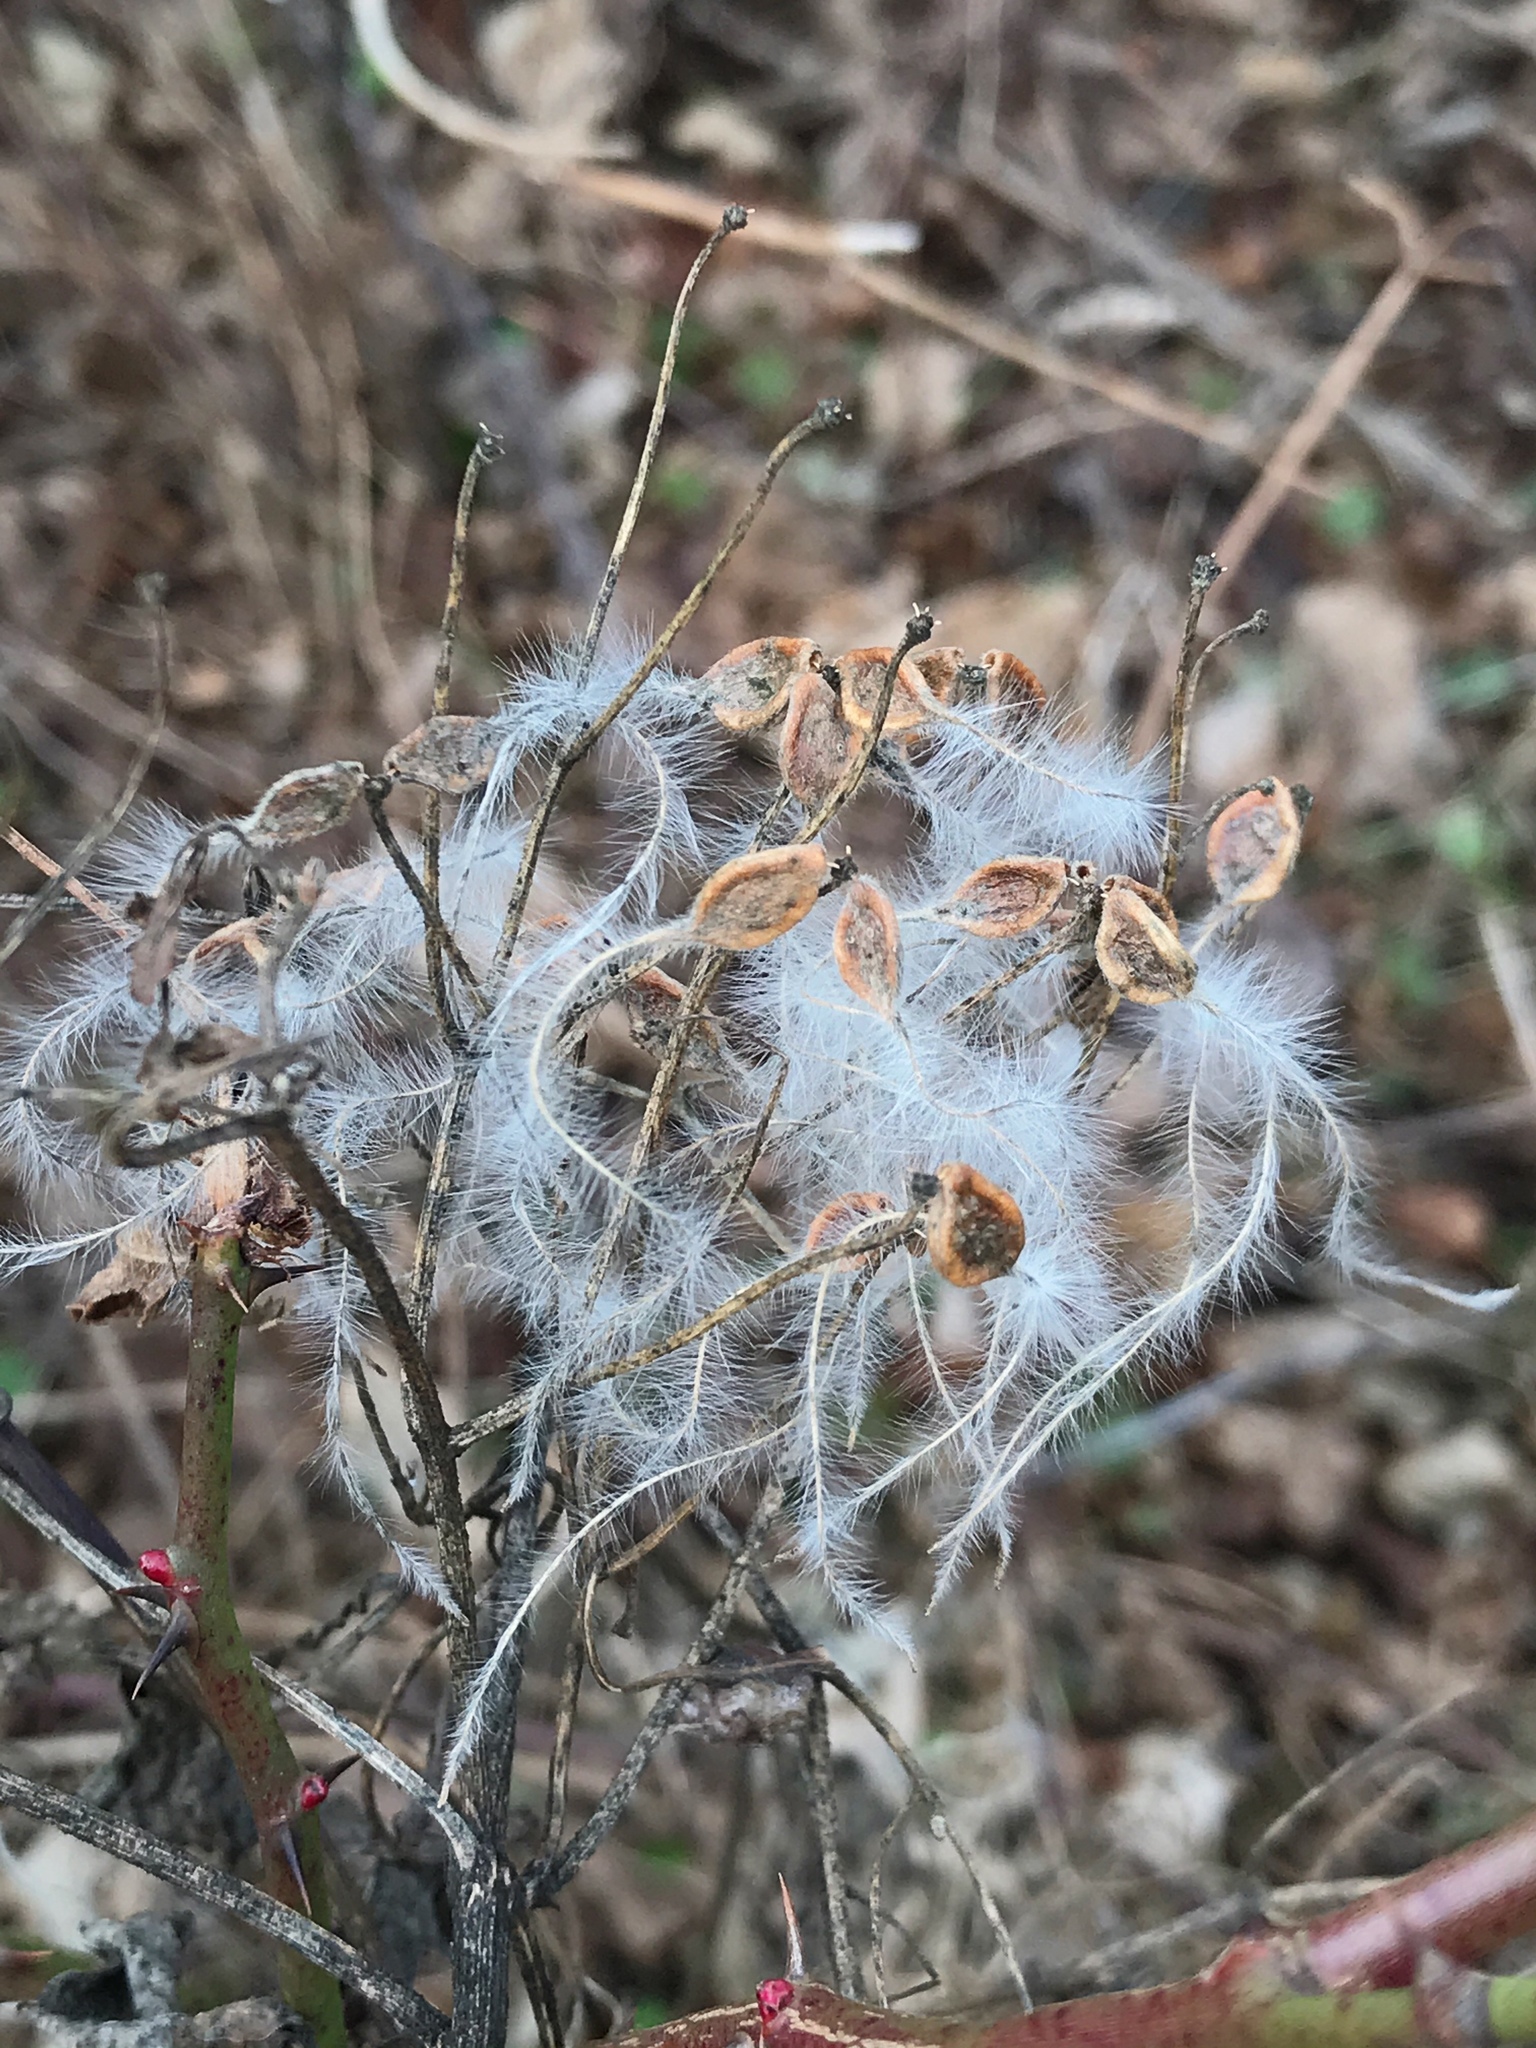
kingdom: Plantae
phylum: Tracheophyta
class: Magnoliopsida
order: Ranunculales
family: Ranunculaceae
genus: Clematis
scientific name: Clematis terniflora
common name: Sweet autumn clematis
